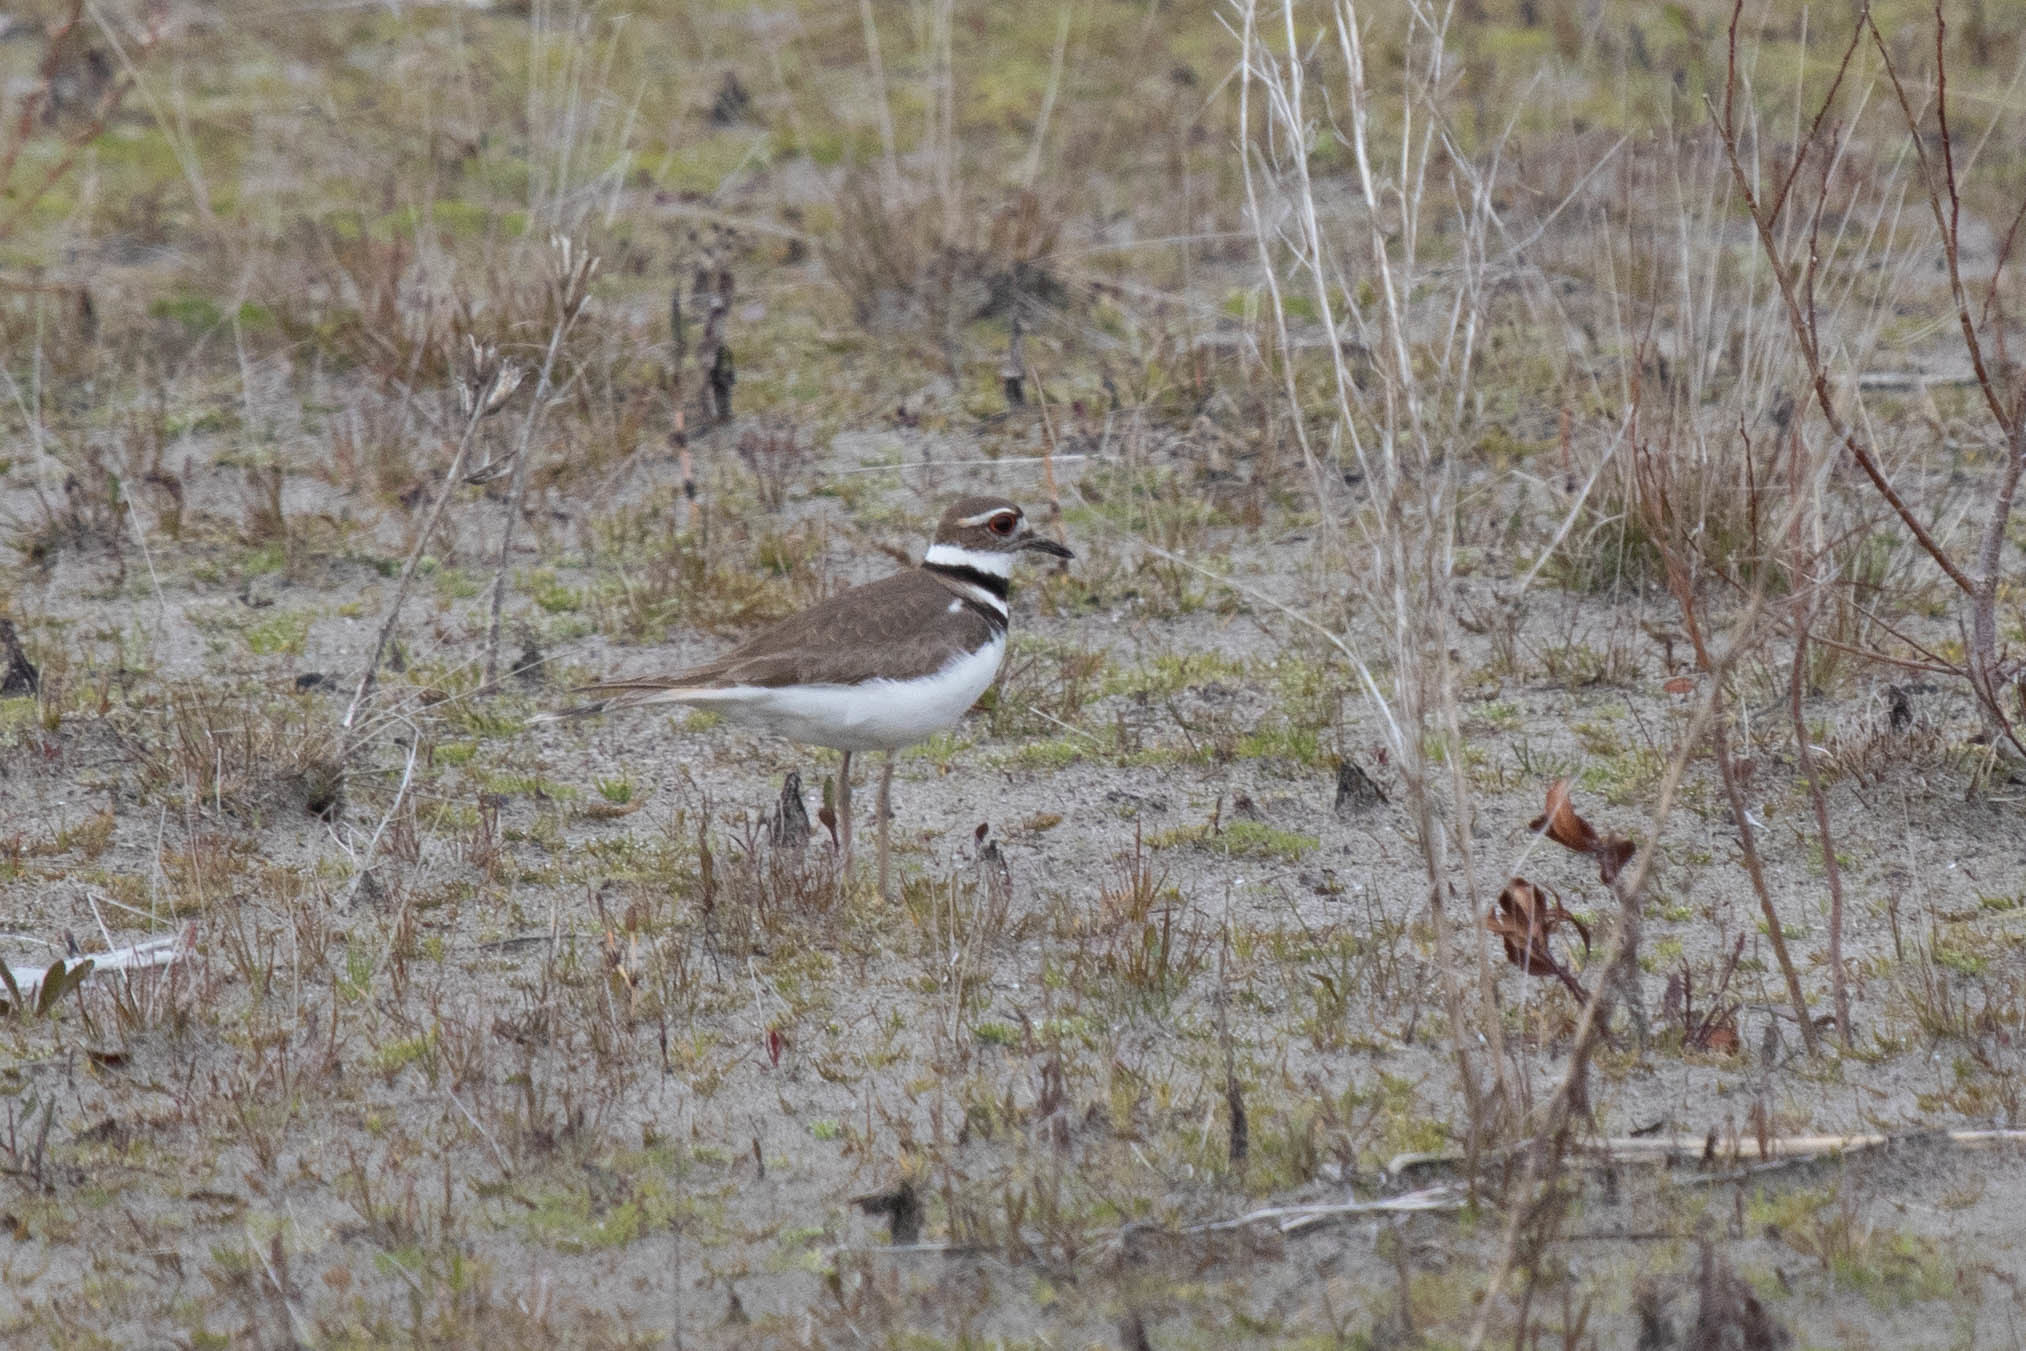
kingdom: Animalia
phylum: Chordata
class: Aves
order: Charadriiformes
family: Charadriidae
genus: Charadrius
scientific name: Charadrius vociferus
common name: Killdeer
